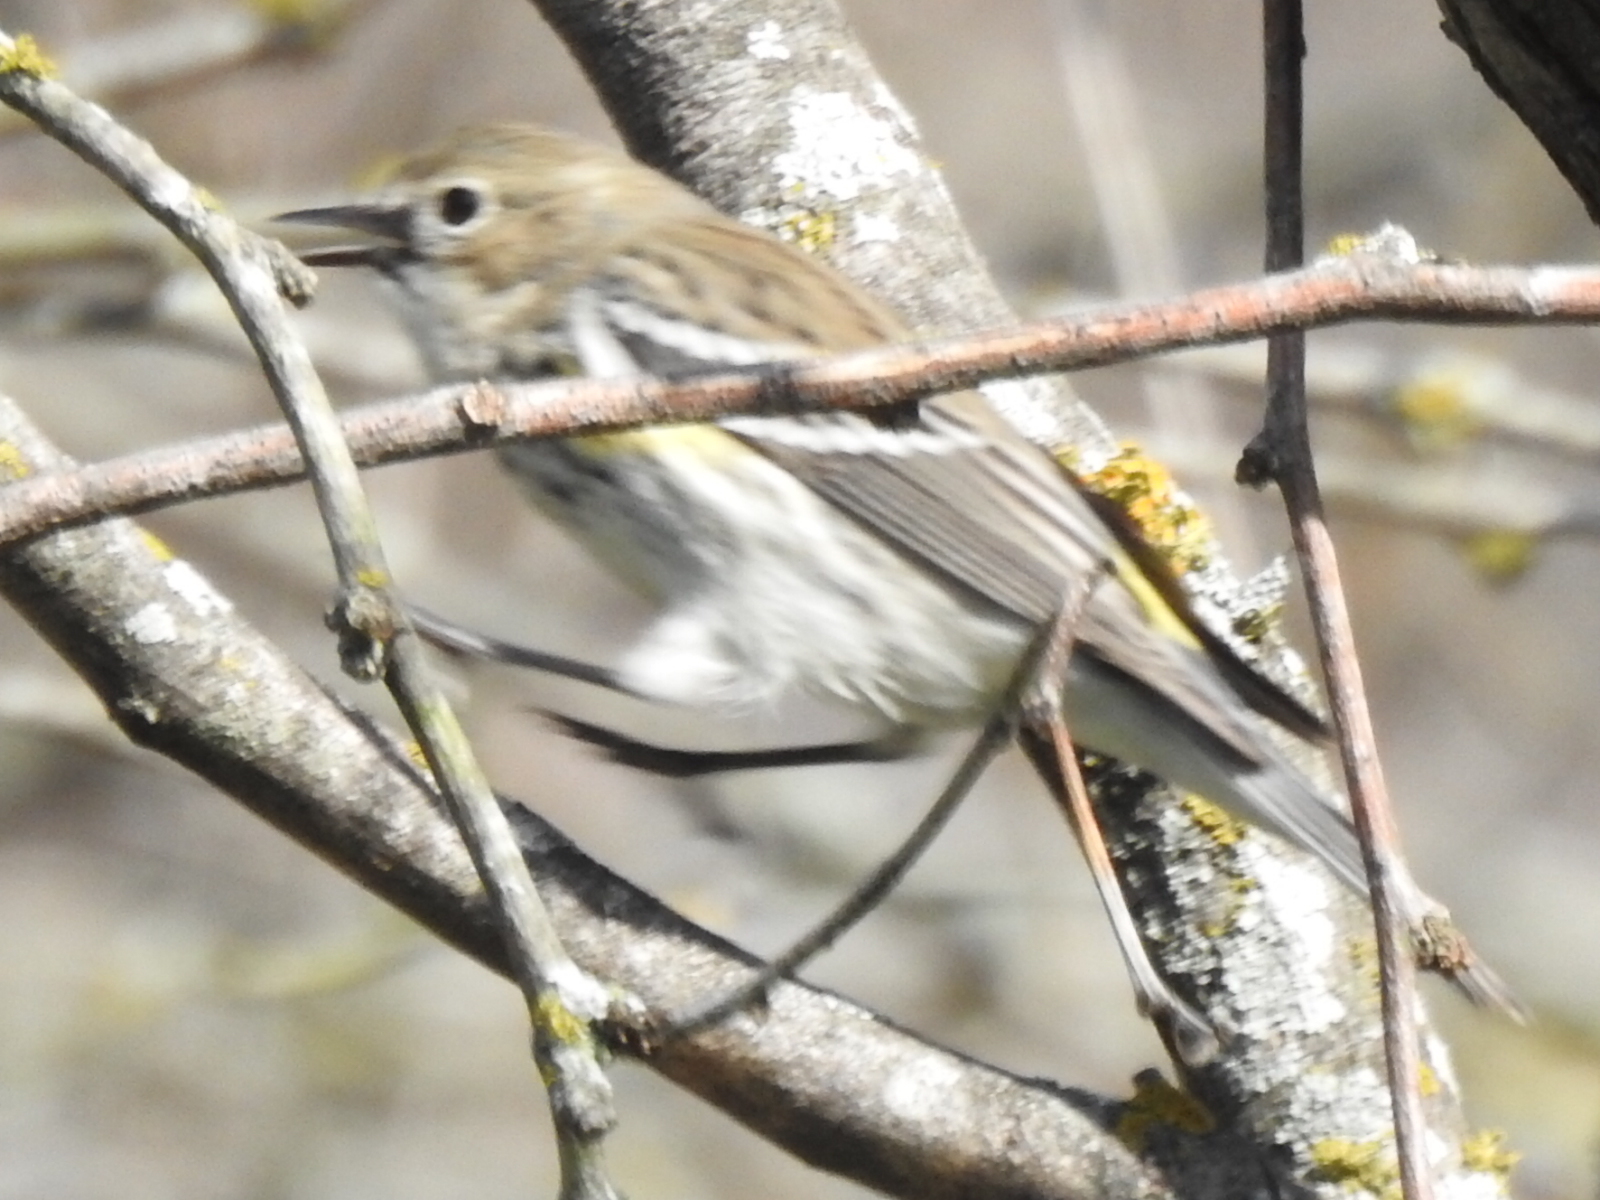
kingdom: Animalia
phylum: Chordata
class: Aves
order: Passeriformes
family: Parulidae
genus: Setophaga
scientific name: Setophaga coronata
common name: Myrtle warbler
